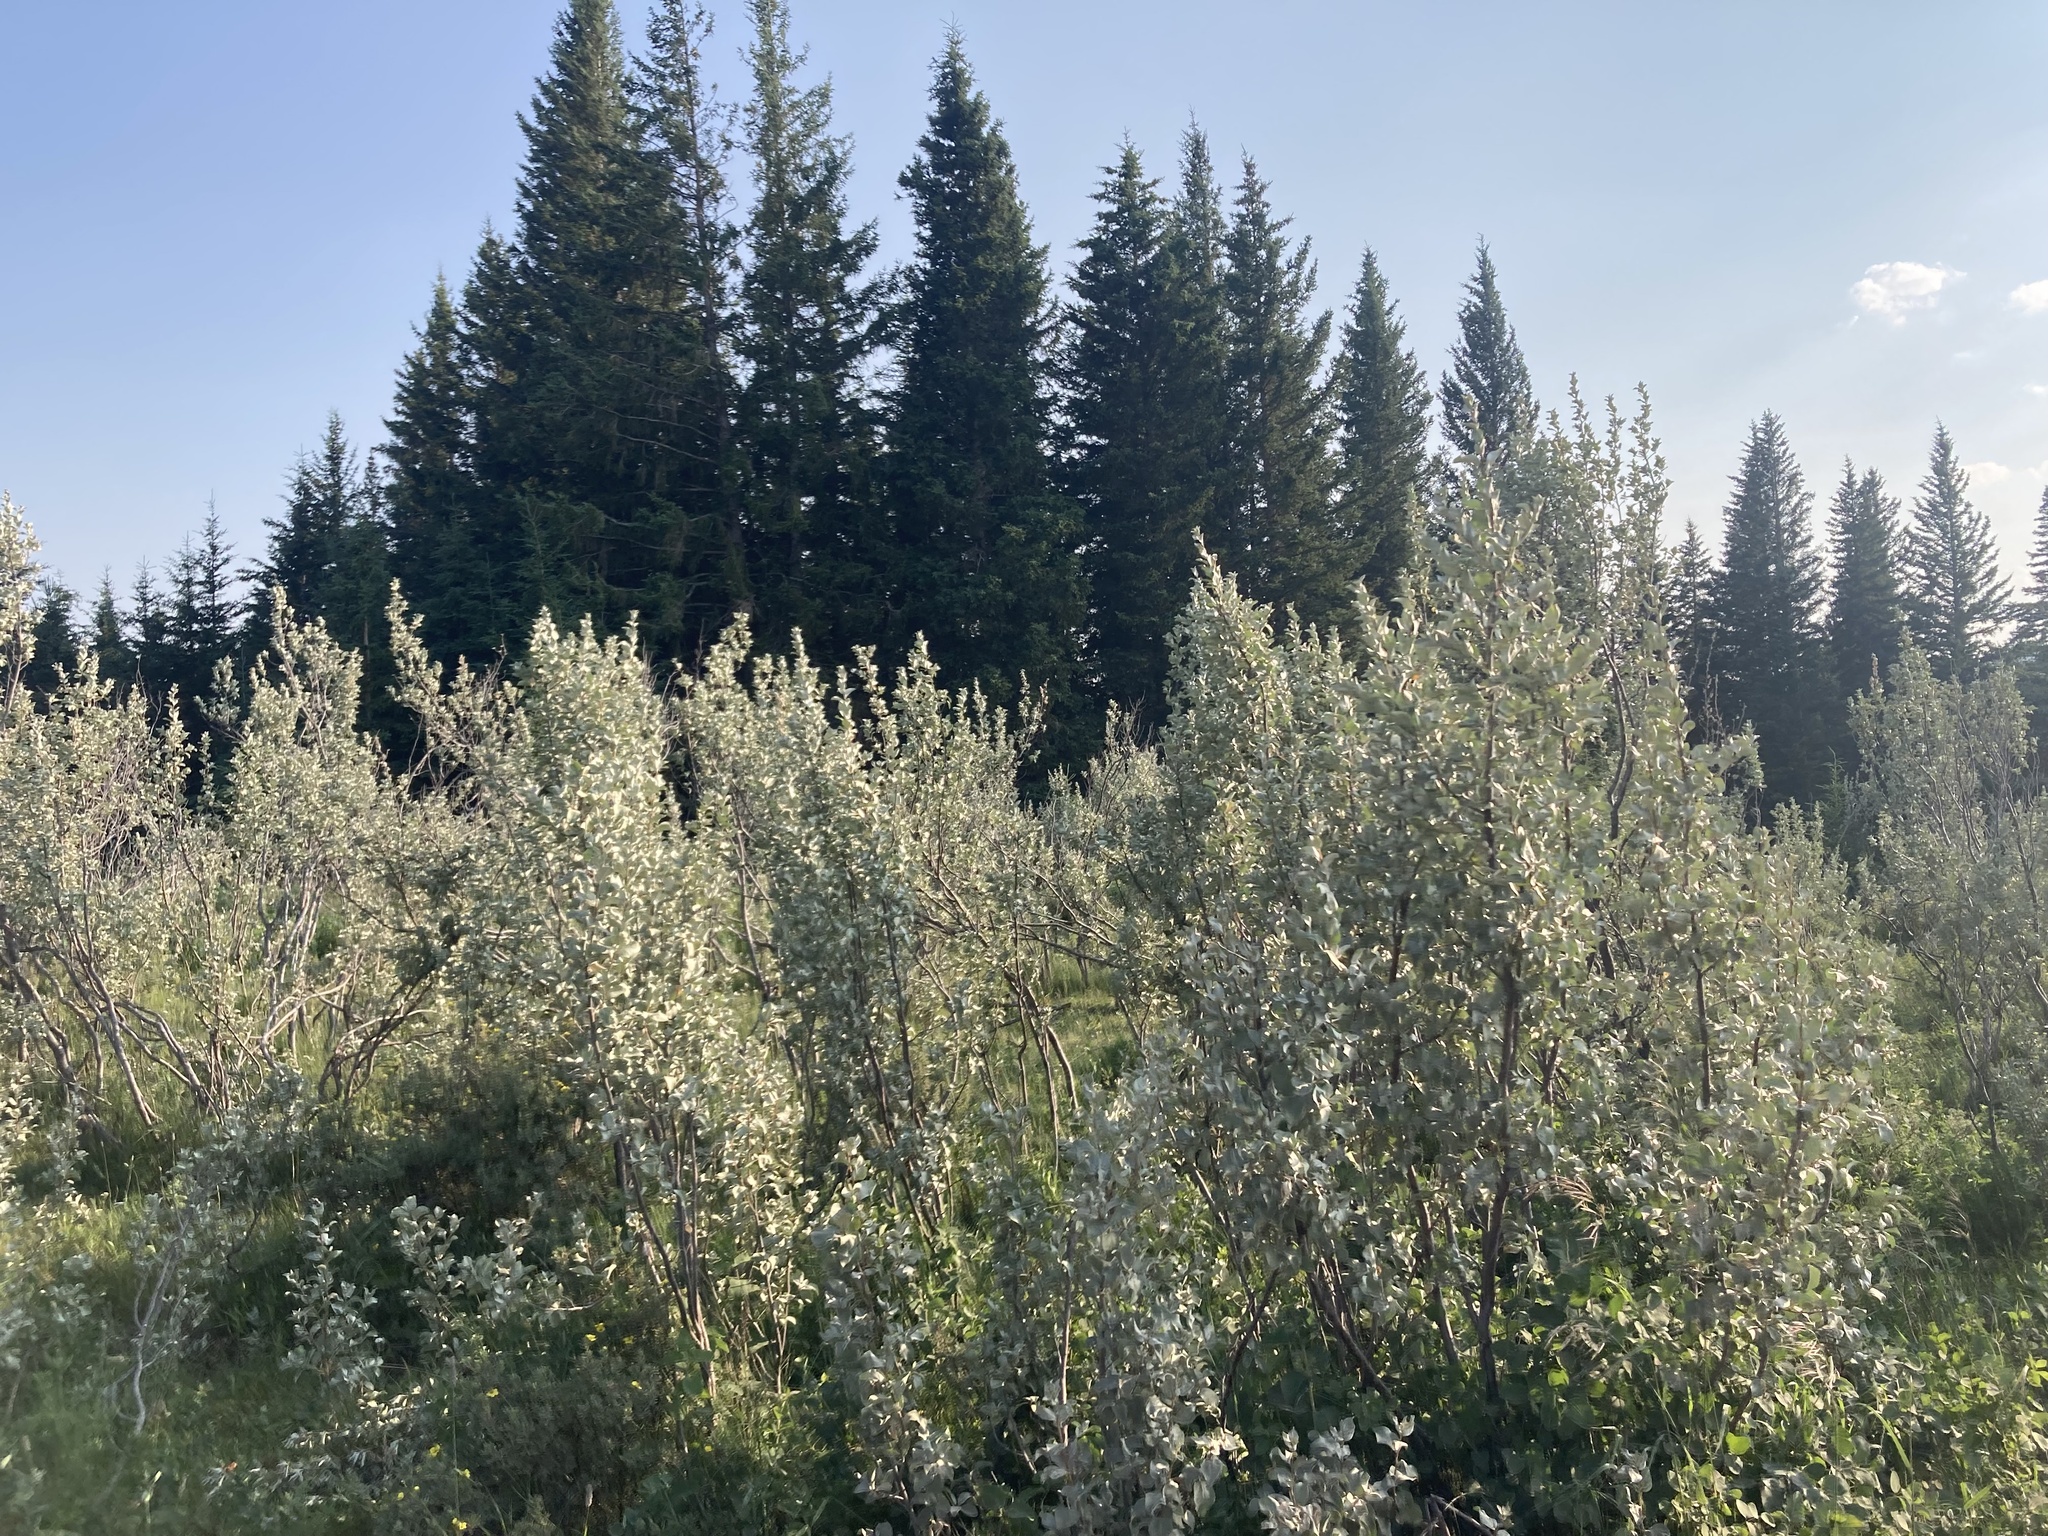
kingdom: Plantae
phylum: Tracheophyta
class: Magnoliopsida
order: Rosales
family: Elaeagnaceae
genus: Elaeagnus
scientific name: Elaeagnus commutata
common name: Silverberry
